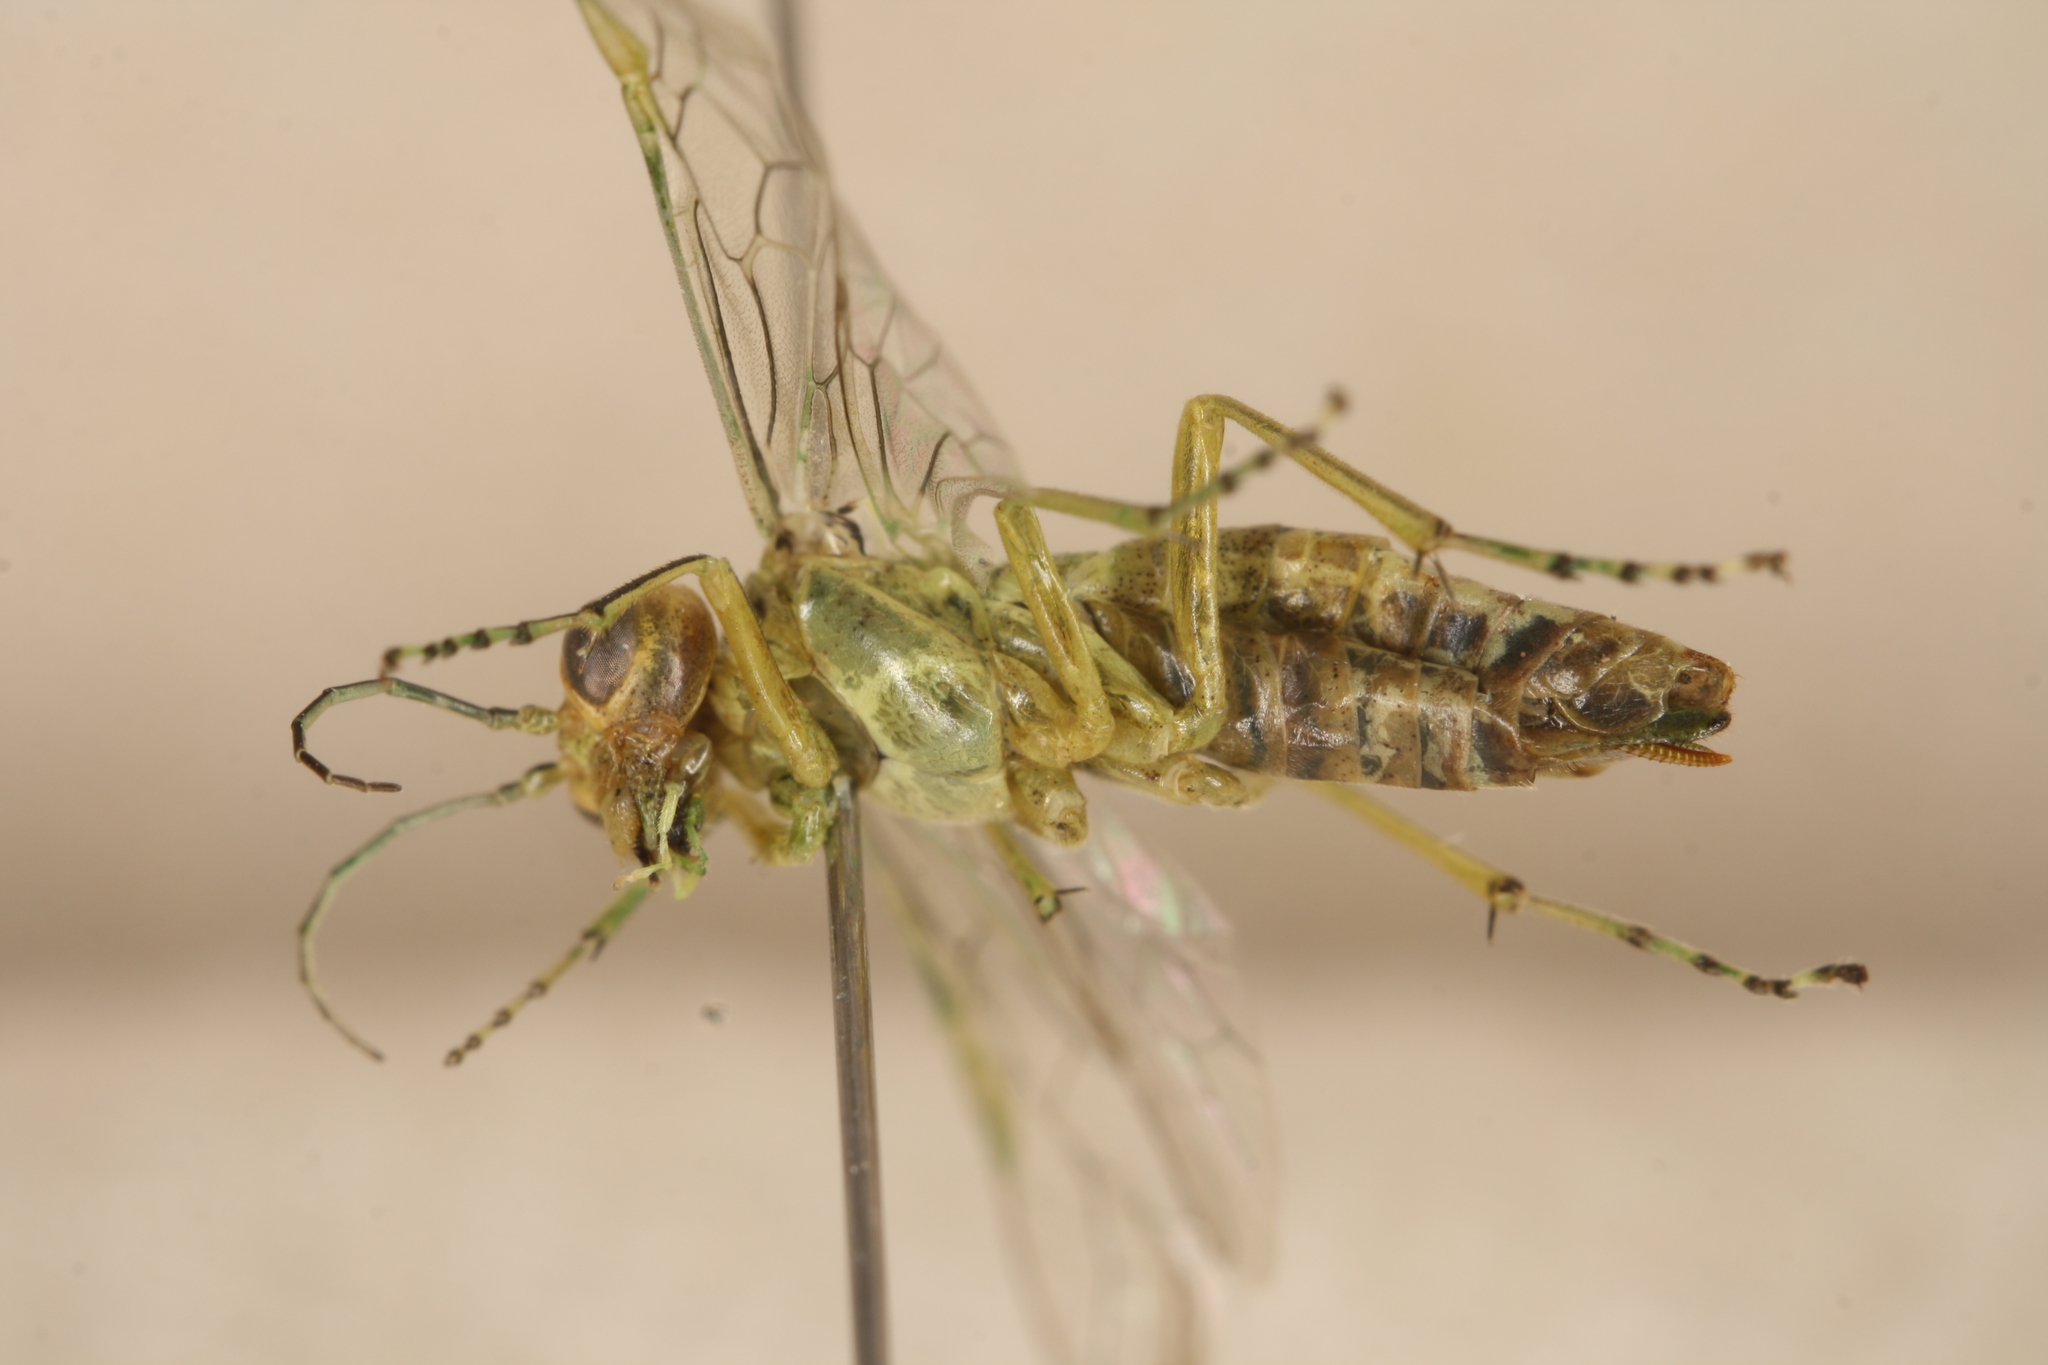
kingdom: Animalia
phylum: Arthropoda
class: Insecta
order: Hymenoptera
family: Tenthredinidae
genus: Rhogogaster
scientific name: Rhogogaster punctulata
